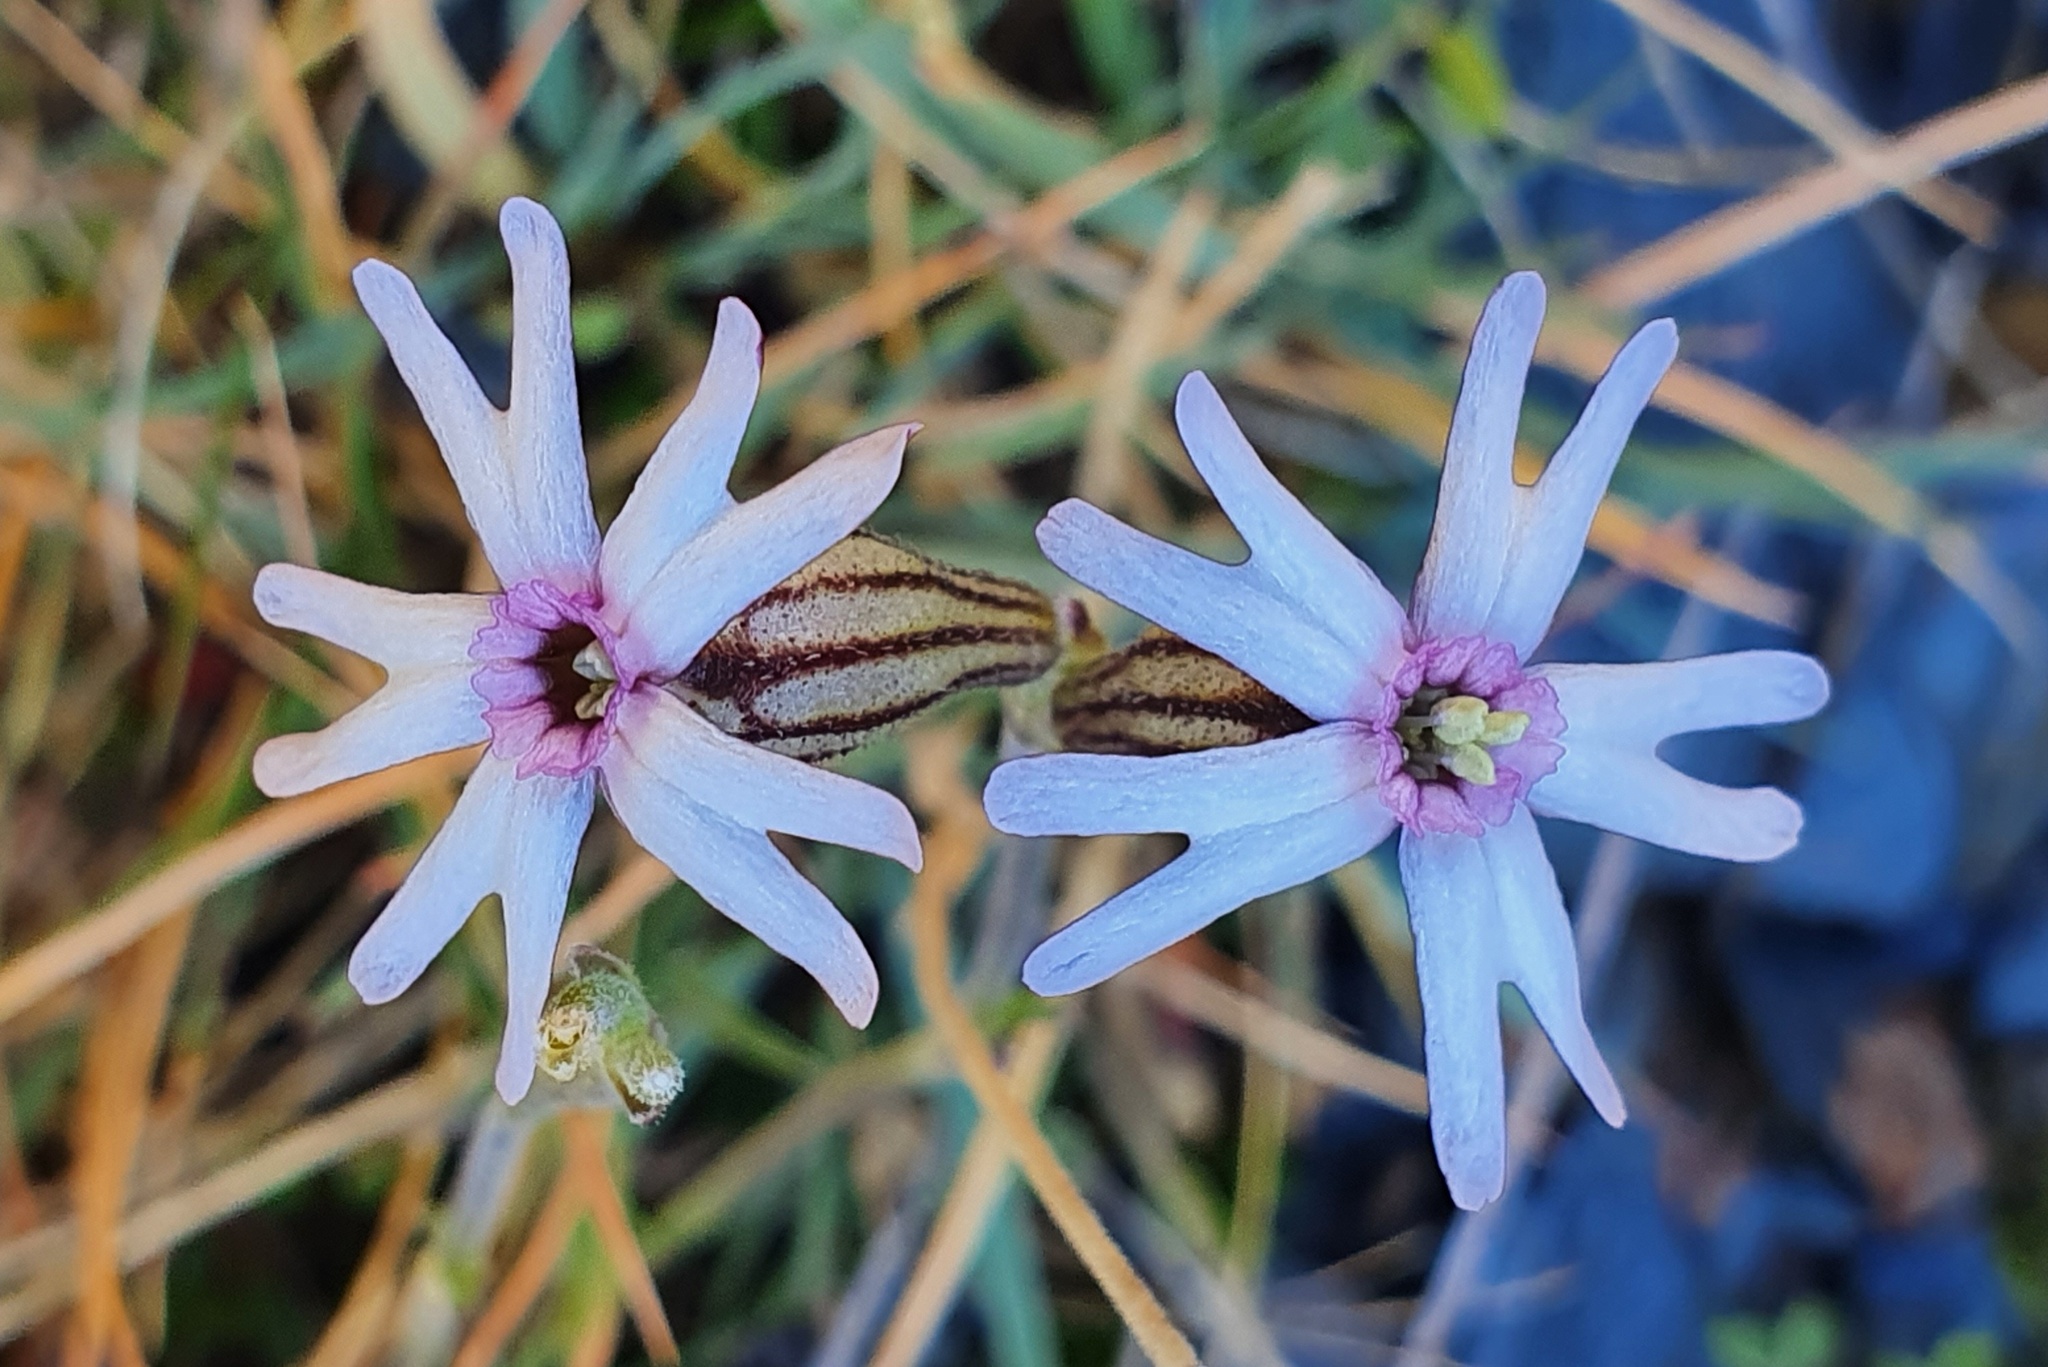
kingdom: Plantae
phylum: Tracheophyta
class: Magnoliopsida
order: Caryophyllales
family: Caryophyllaceae
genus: Silene
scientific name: Silene ciliata
